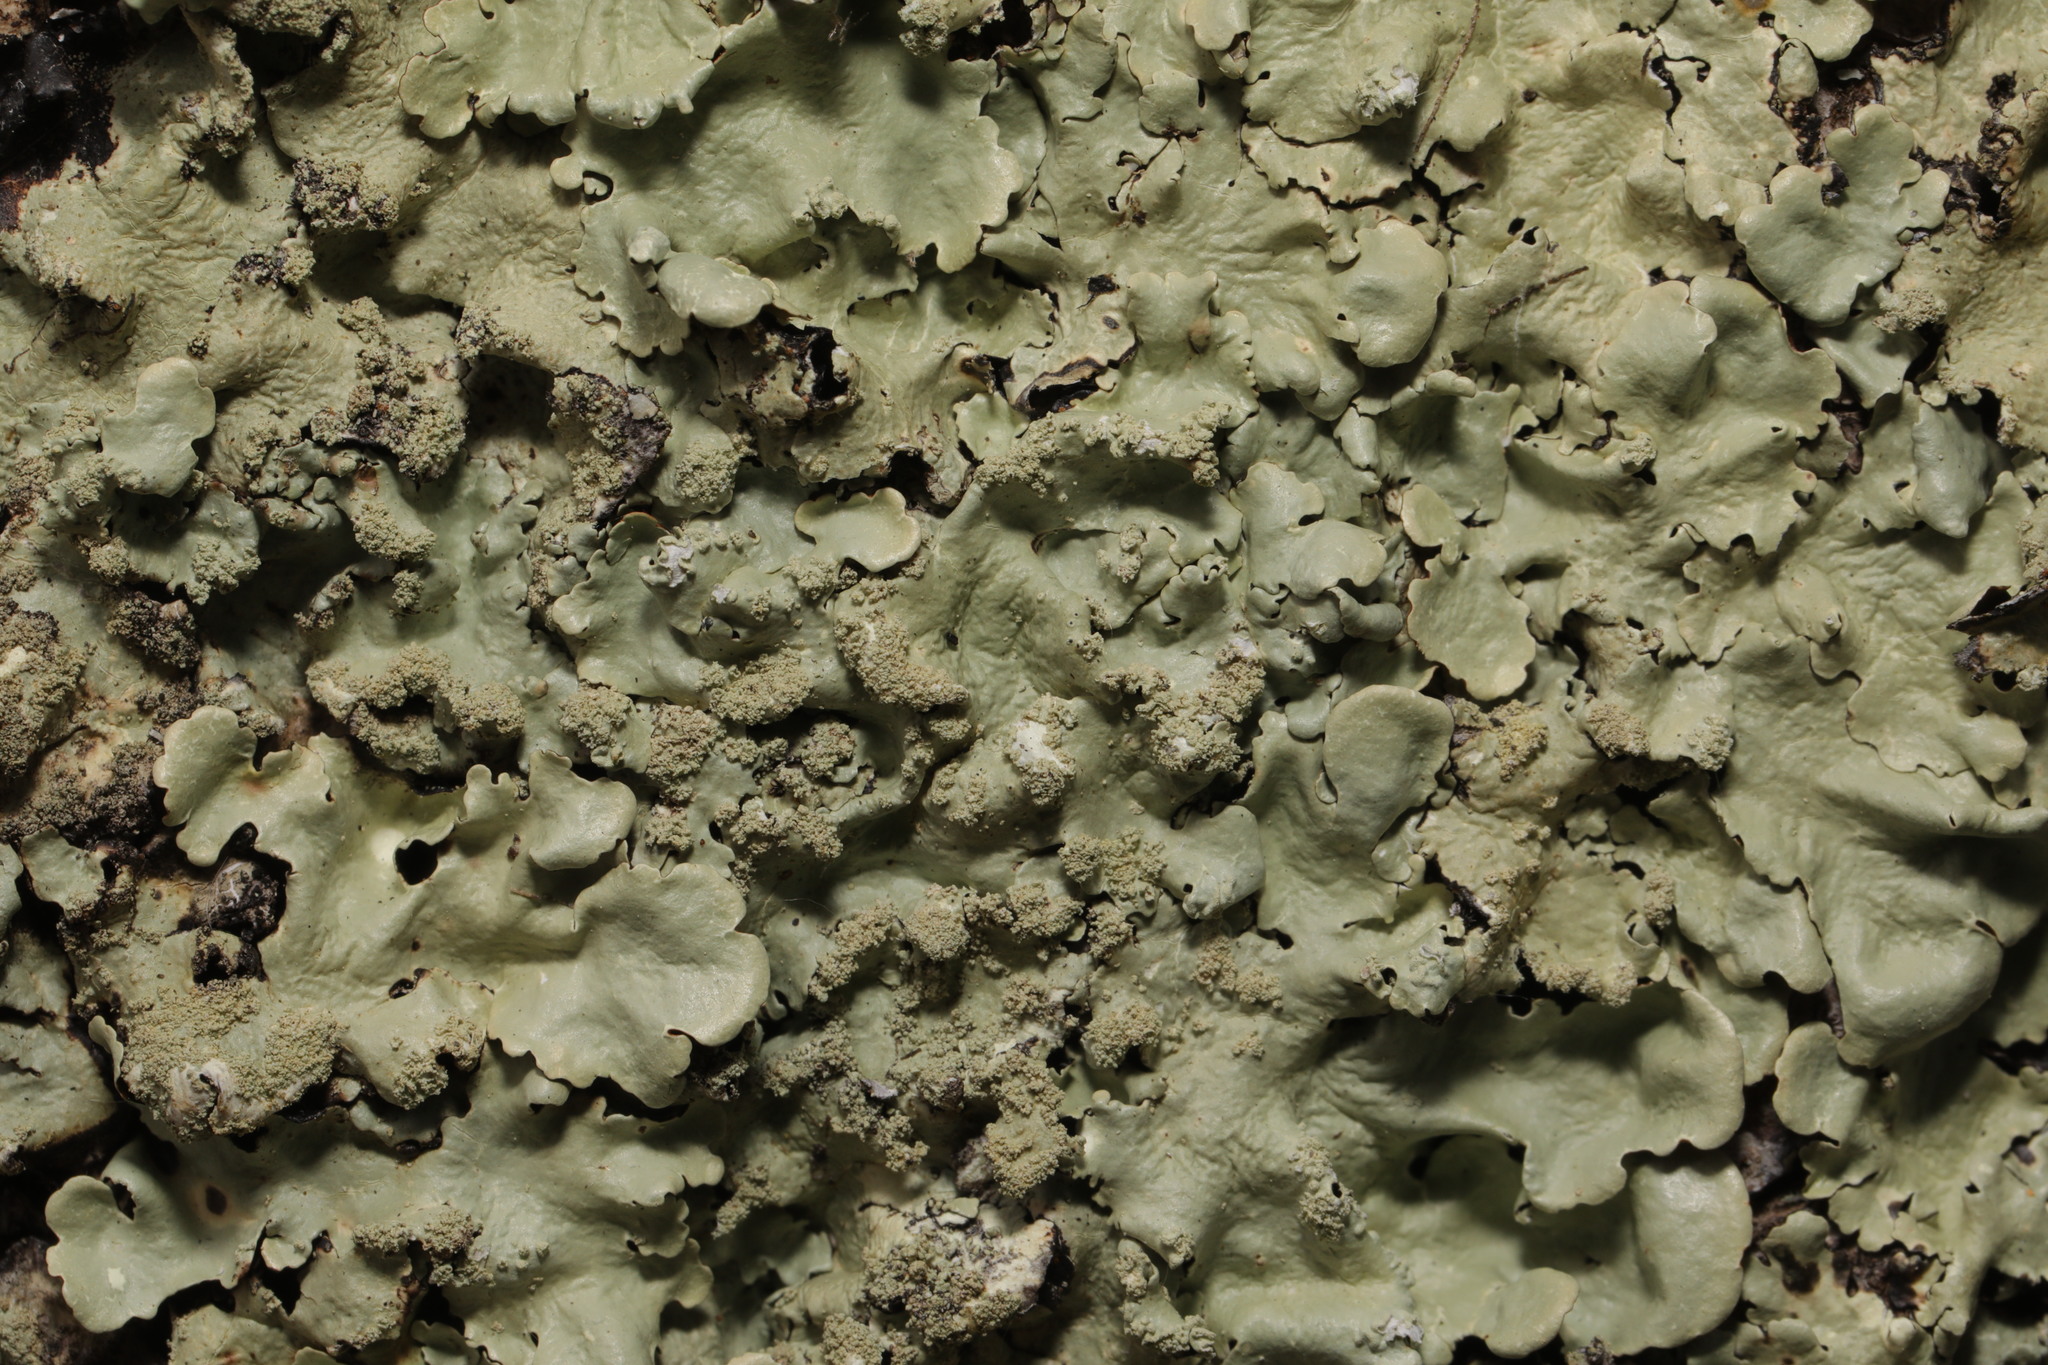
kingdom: Fungi
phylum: Ascomycota
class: Lecanoromycetes
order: Lecanorales
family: Parmeliaceae
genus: Flavoparmelia
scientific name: Flavoparmelia caperata
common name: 40-mile per hour lichen
